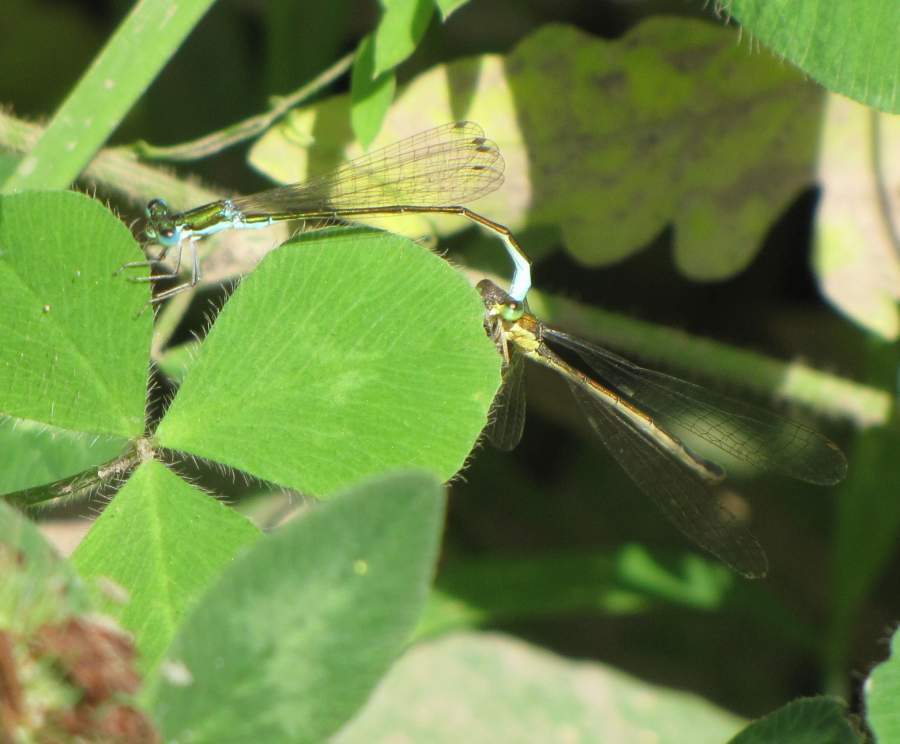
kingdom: Animalia
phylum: Arthropoda
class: Insecta
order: Odonata
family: Coenagrionidae
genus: Nehalennia
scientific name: Nehalennia irene
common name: Sedge sprite
